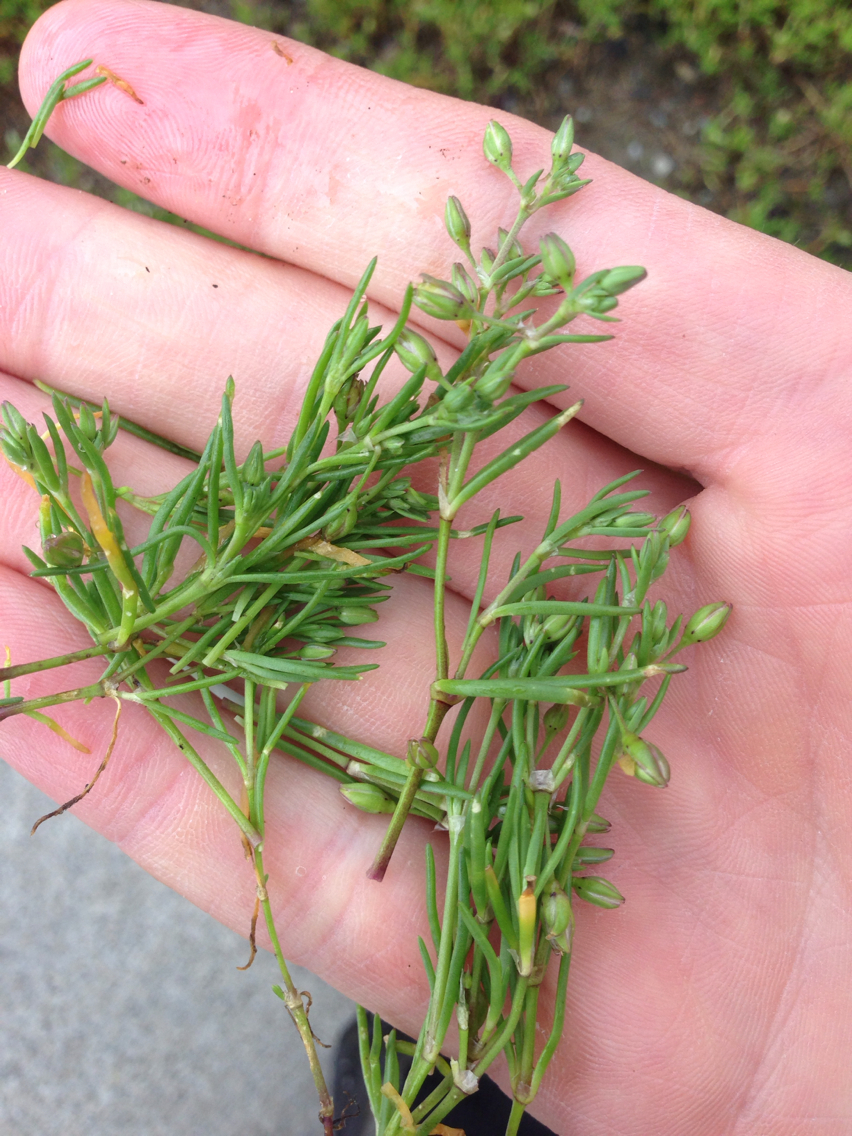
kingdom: Plantae
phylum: Tracheophyta
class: Magnoliopsida
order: Caryophyllales
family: Caryophyllaceae
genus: Spergularia
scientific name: Spergularia rubra
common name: Red sand-spurrey
